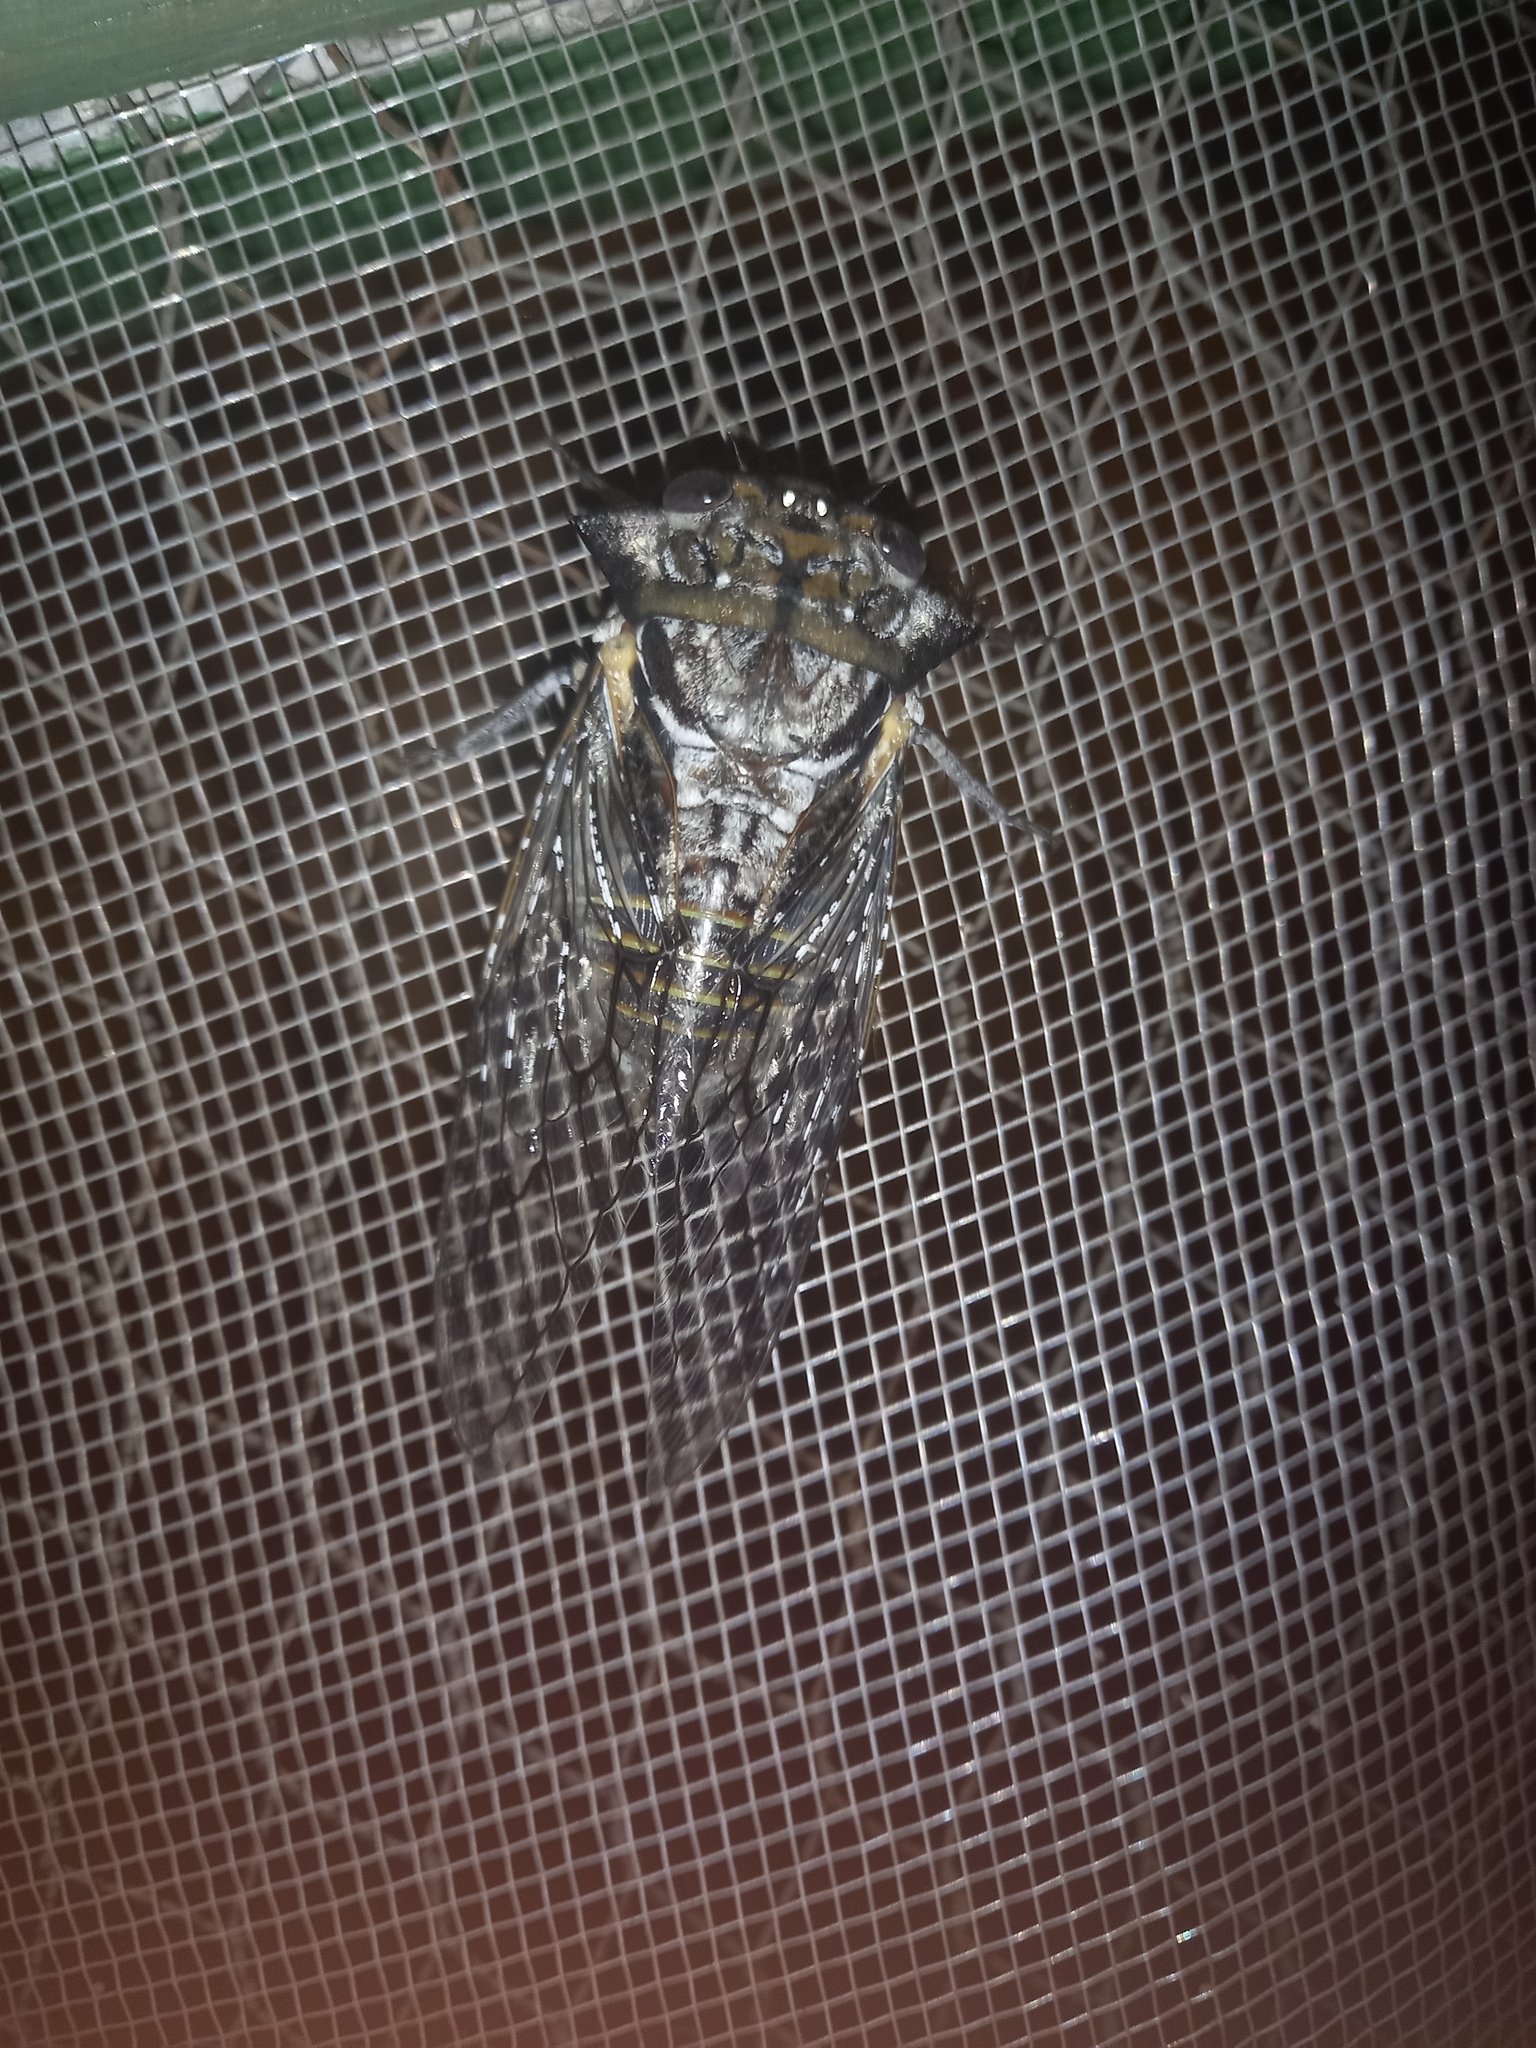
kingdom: Animalia
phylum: Arthropoda
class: Insecta
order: Hemiptera
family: Cicadidae
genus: Oxypleura
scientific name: Oxypleura quadraticollis
